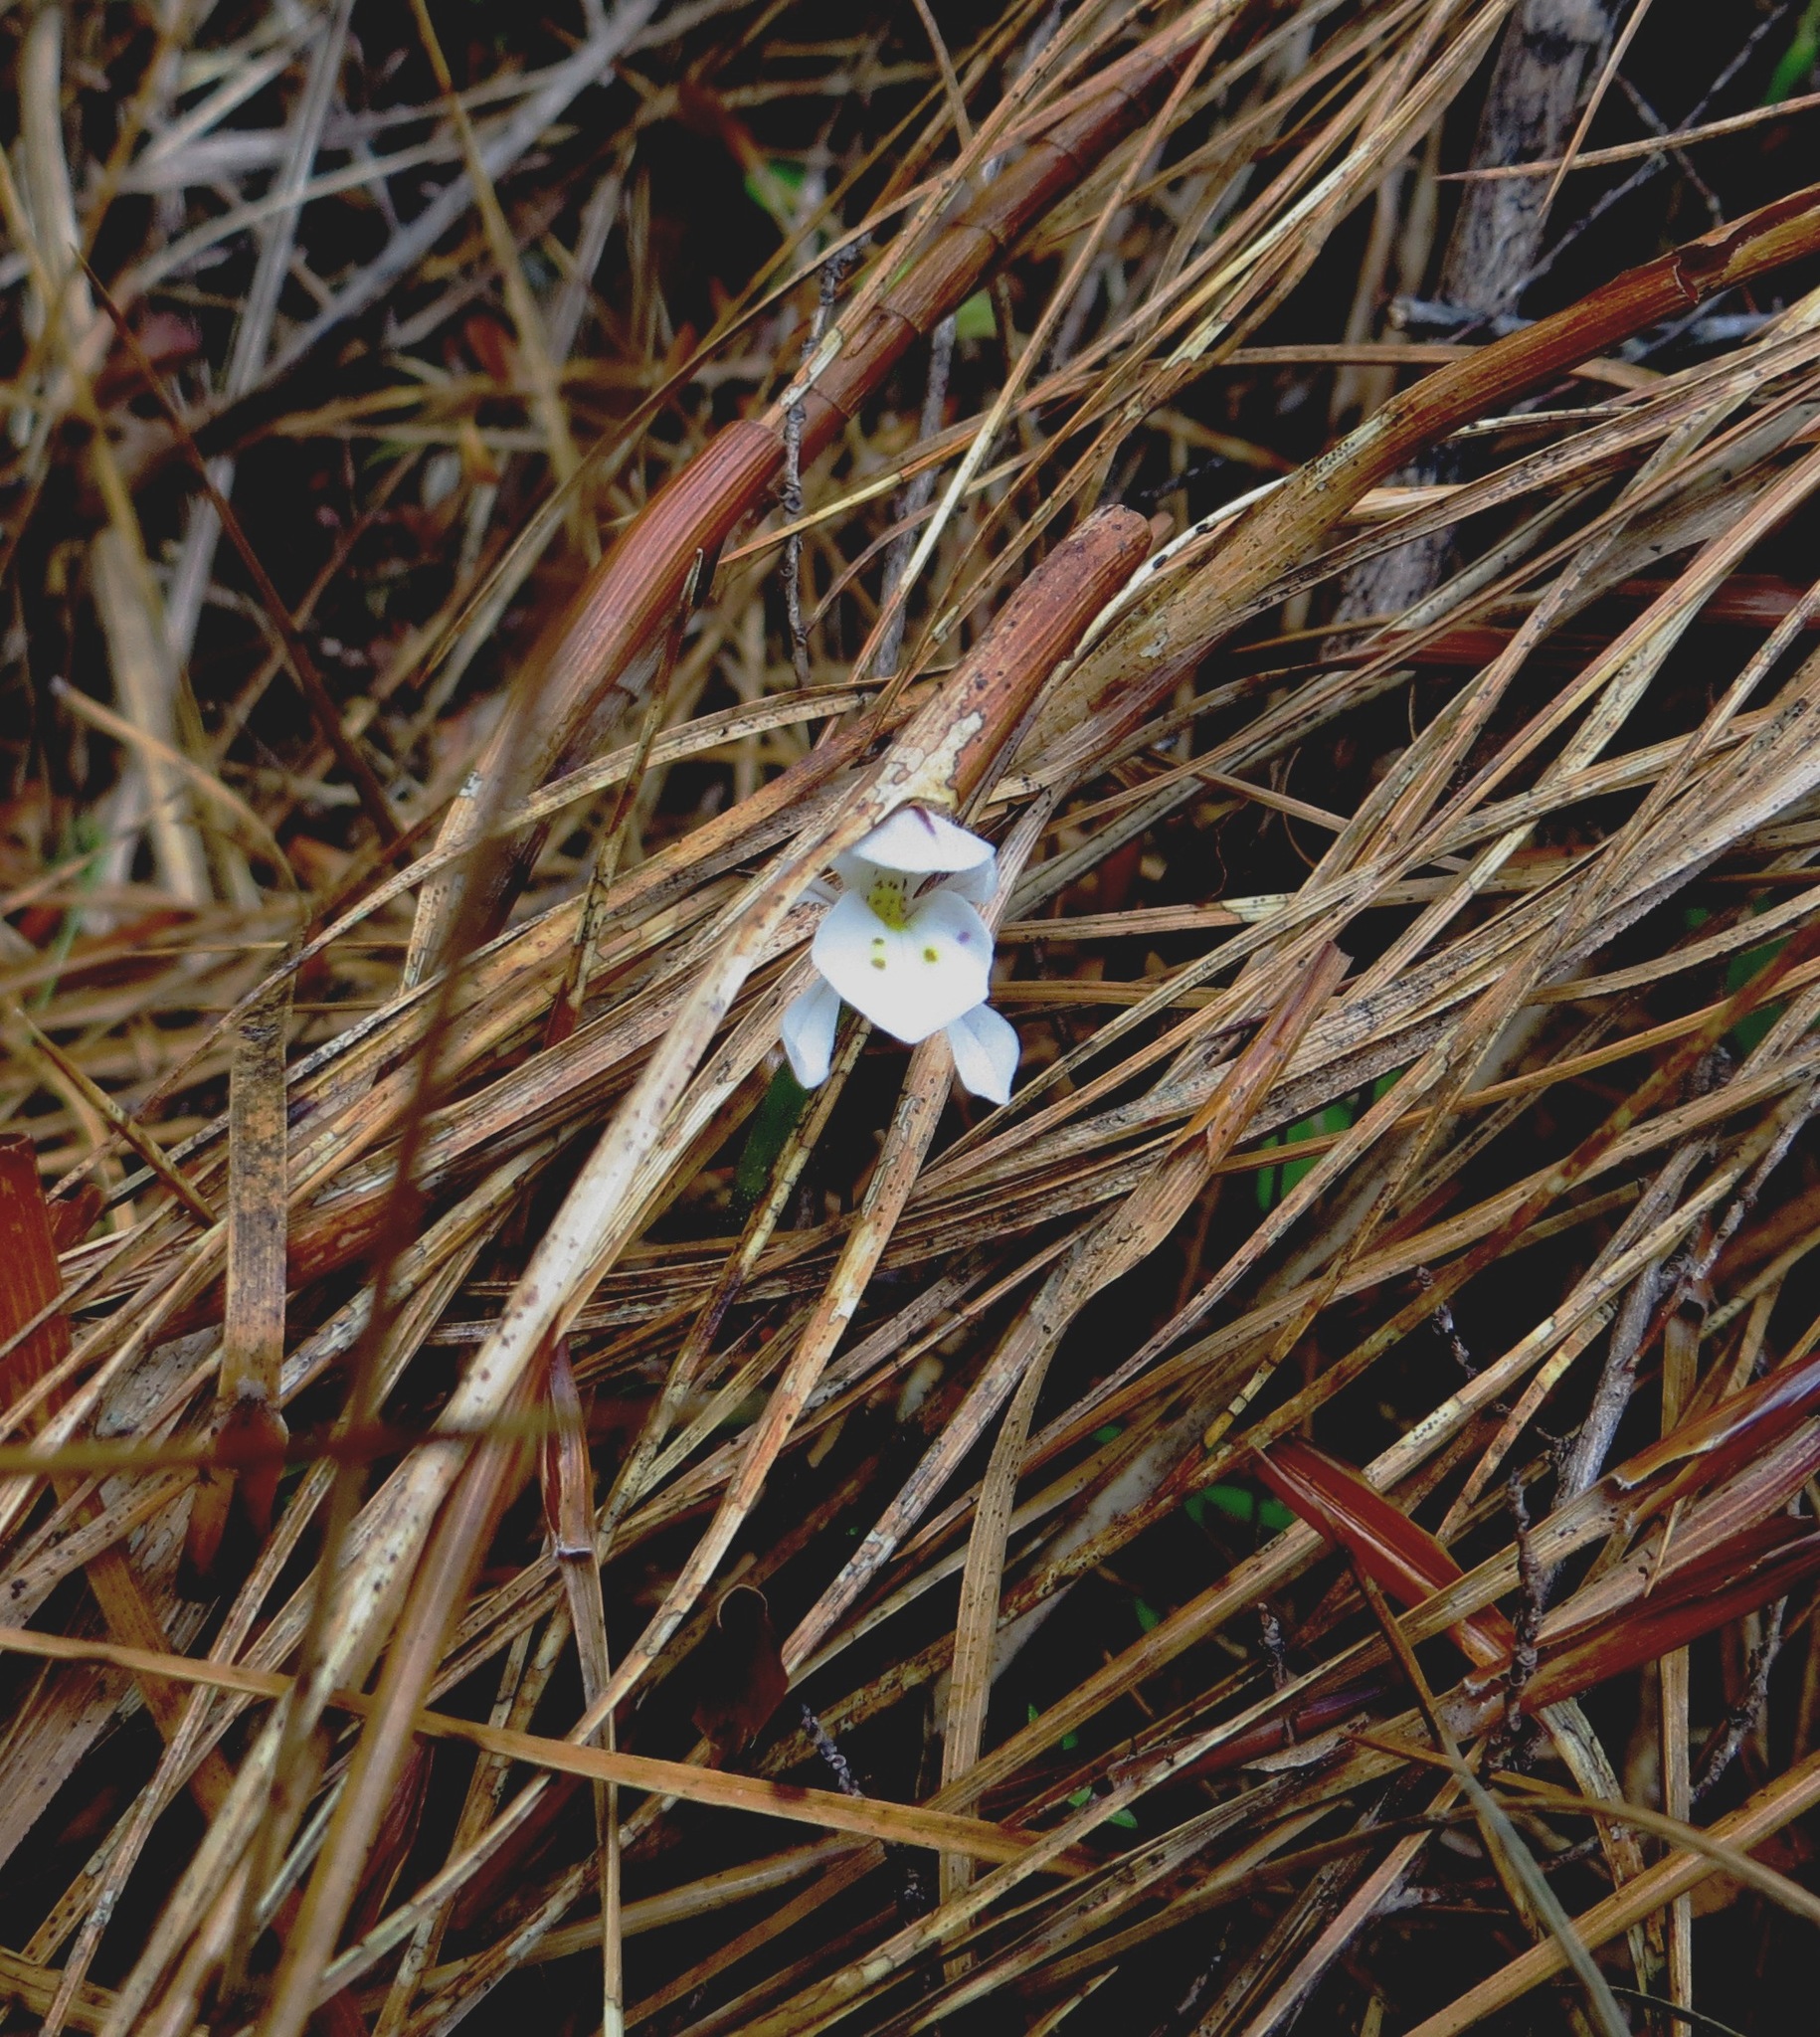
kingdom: Plantae
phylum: Tracheophyta
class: Liliopsida
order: Asparagales
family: Orchidaceae
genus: Aporostylis
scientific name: Aporostylis bifolia
